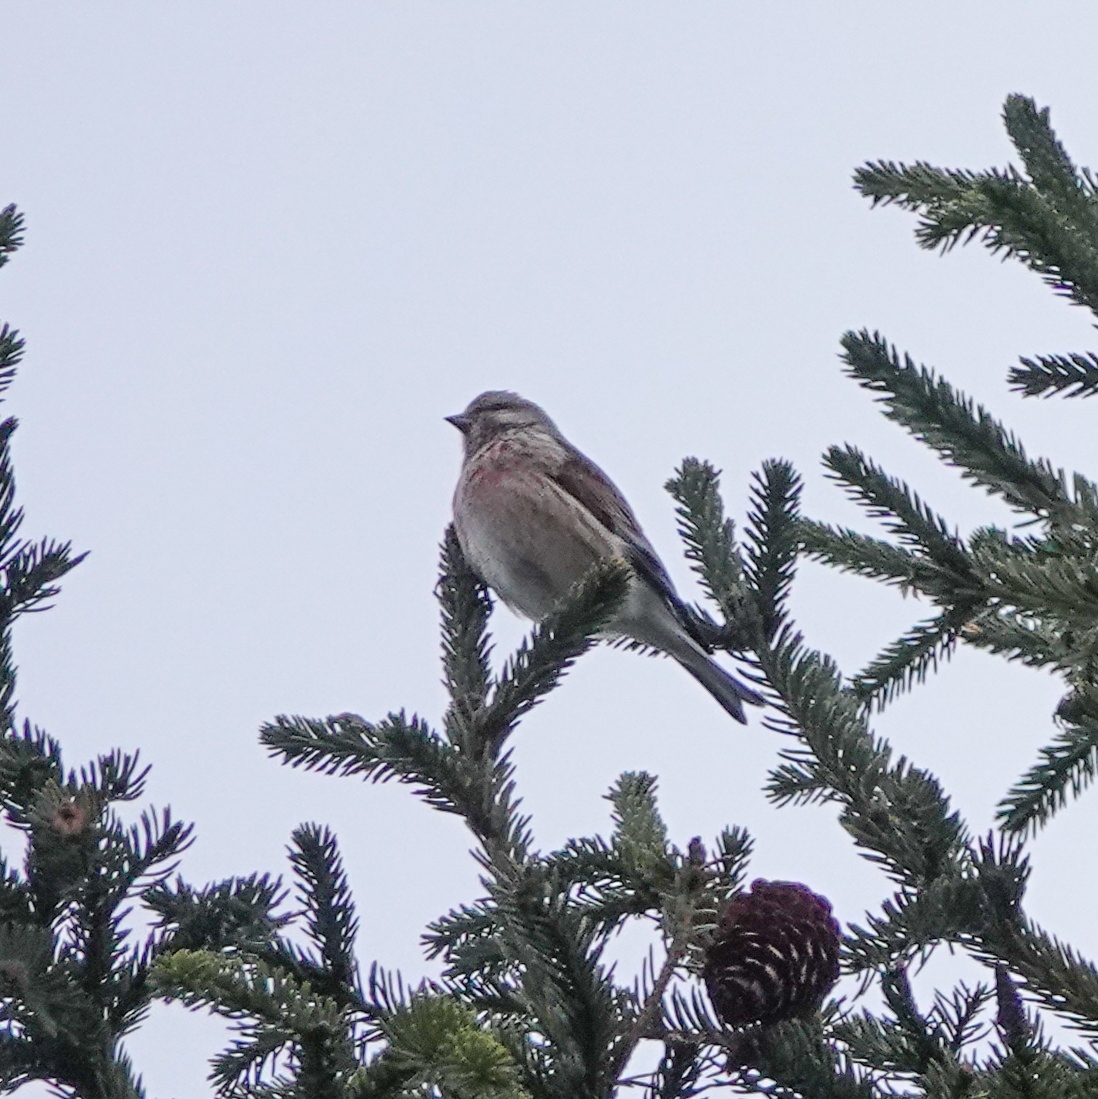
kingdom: Animalia
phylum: Chordata
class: Aves
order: Passeriformes
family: Fringillidae
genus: Linaria
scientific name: Linaria cannabina
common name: Common linnet
